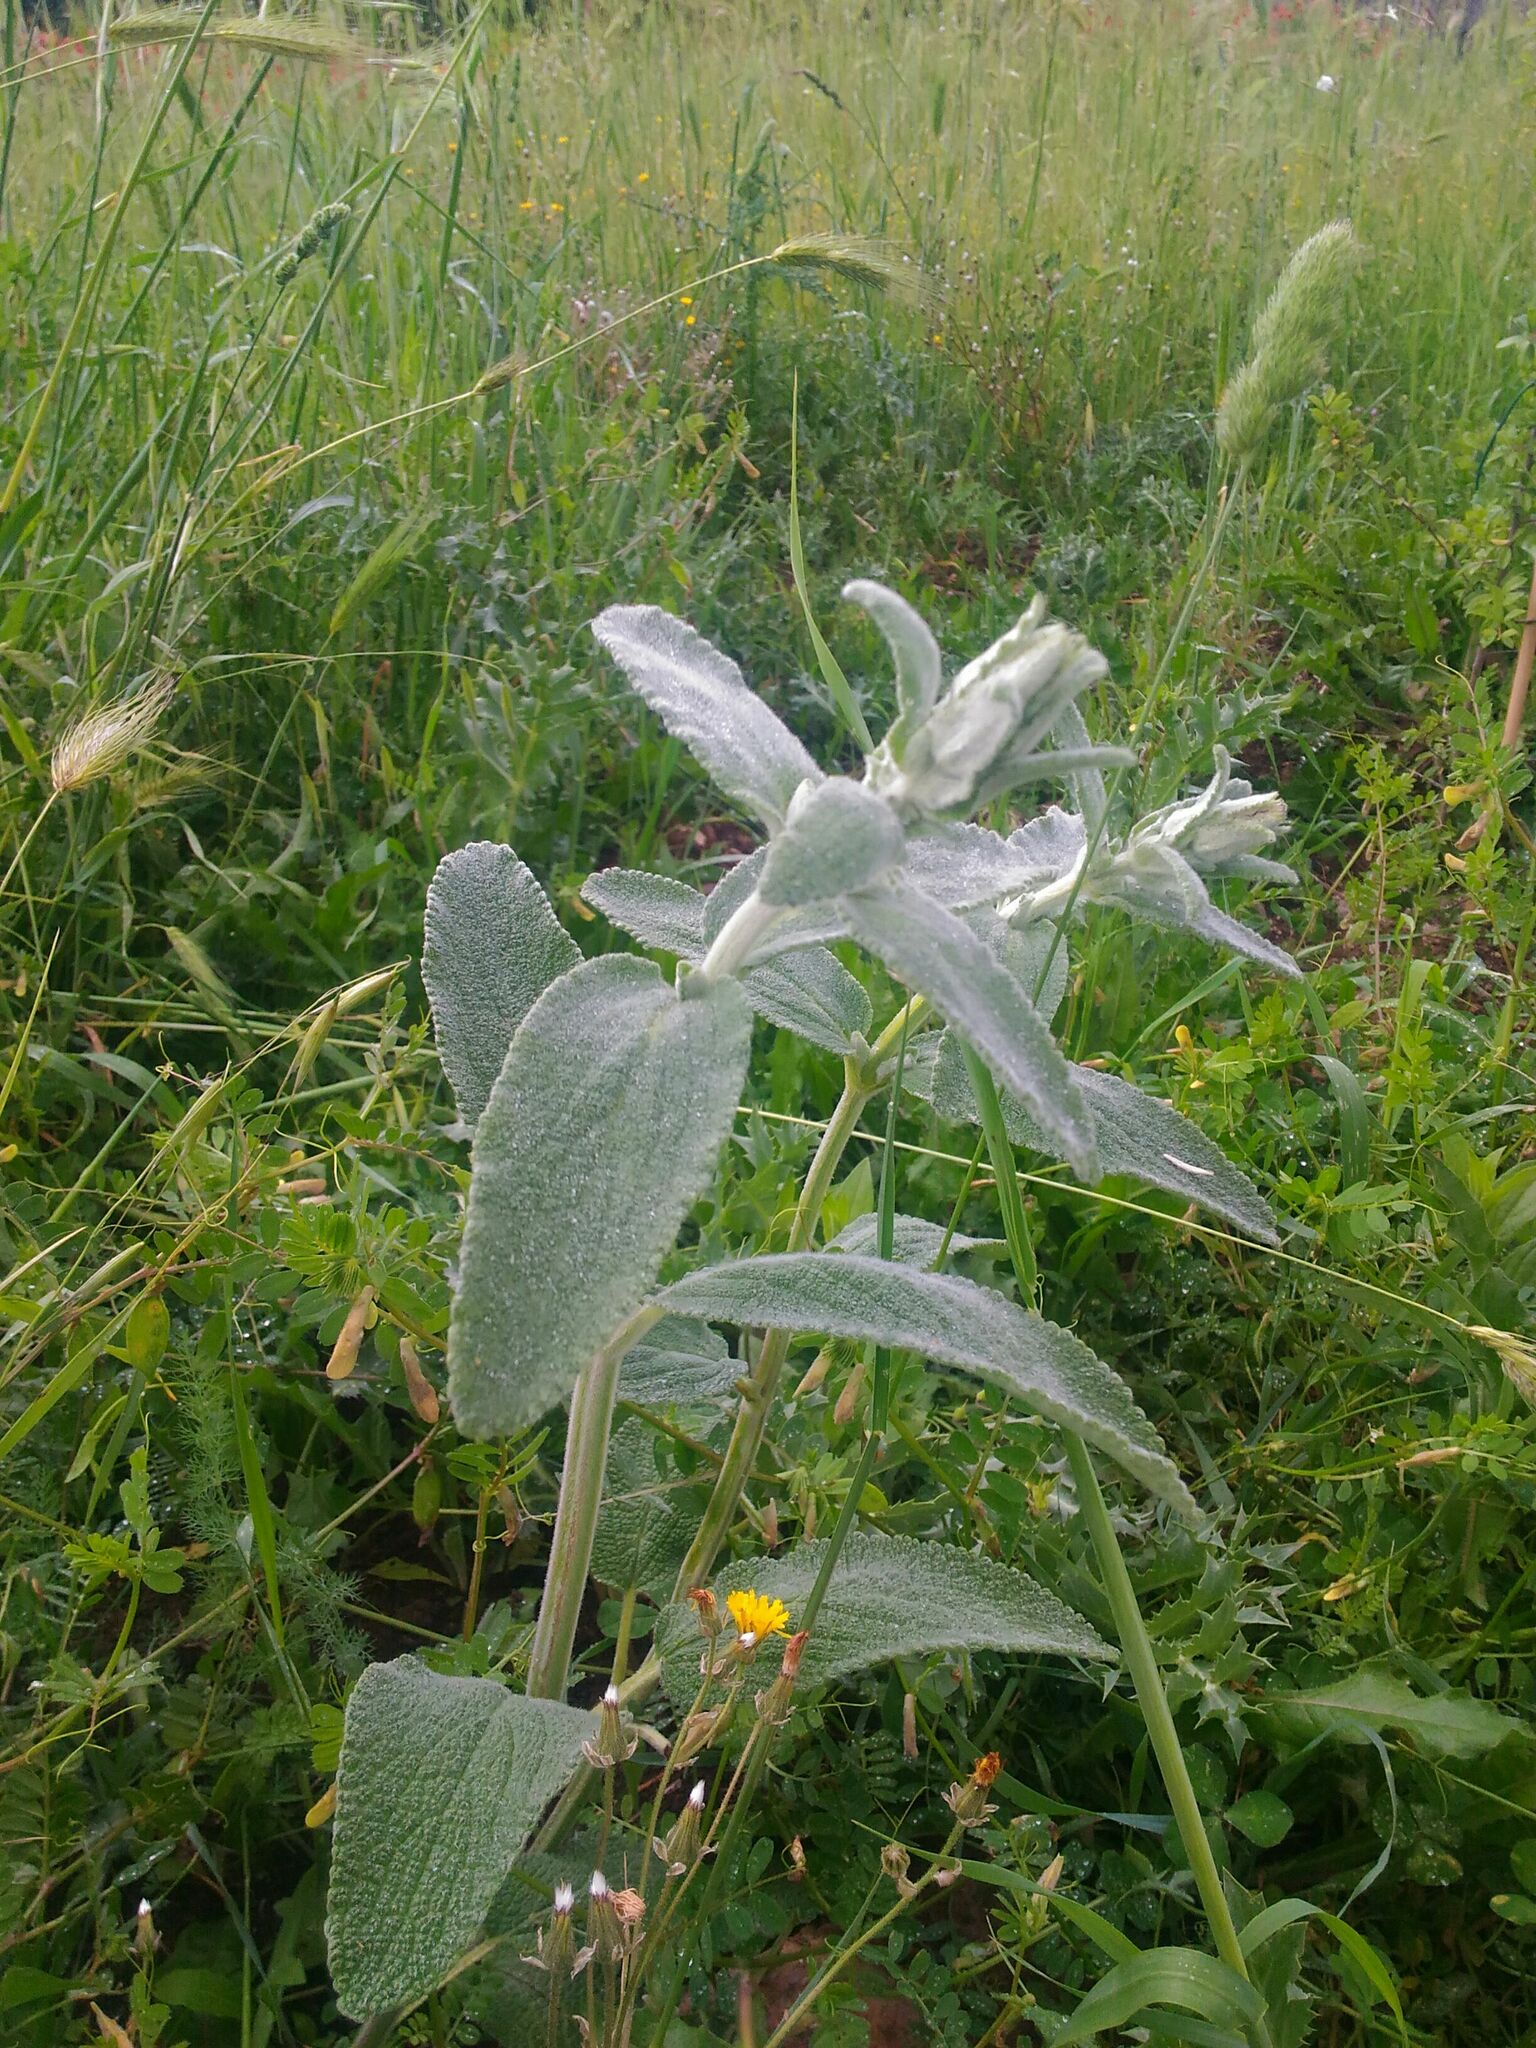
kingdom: Plantae
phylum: Tracheophyta
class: Magnoliopsida
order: Lamiales
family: Lamiaceae
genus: Stachys
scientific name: Stachys cretica
